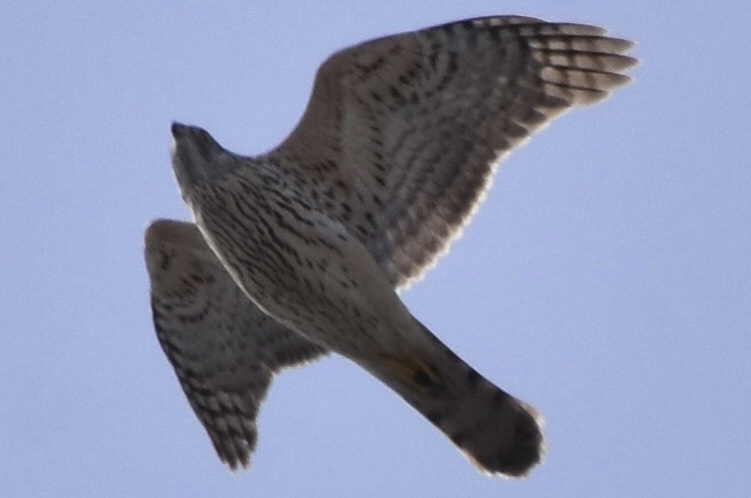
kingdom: Animalia
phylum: Chordata
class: Aves
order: Accipitriformes
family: Accipitridae
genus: Accipiter
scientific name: Accipiter gentilis
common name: Northern goshawk
